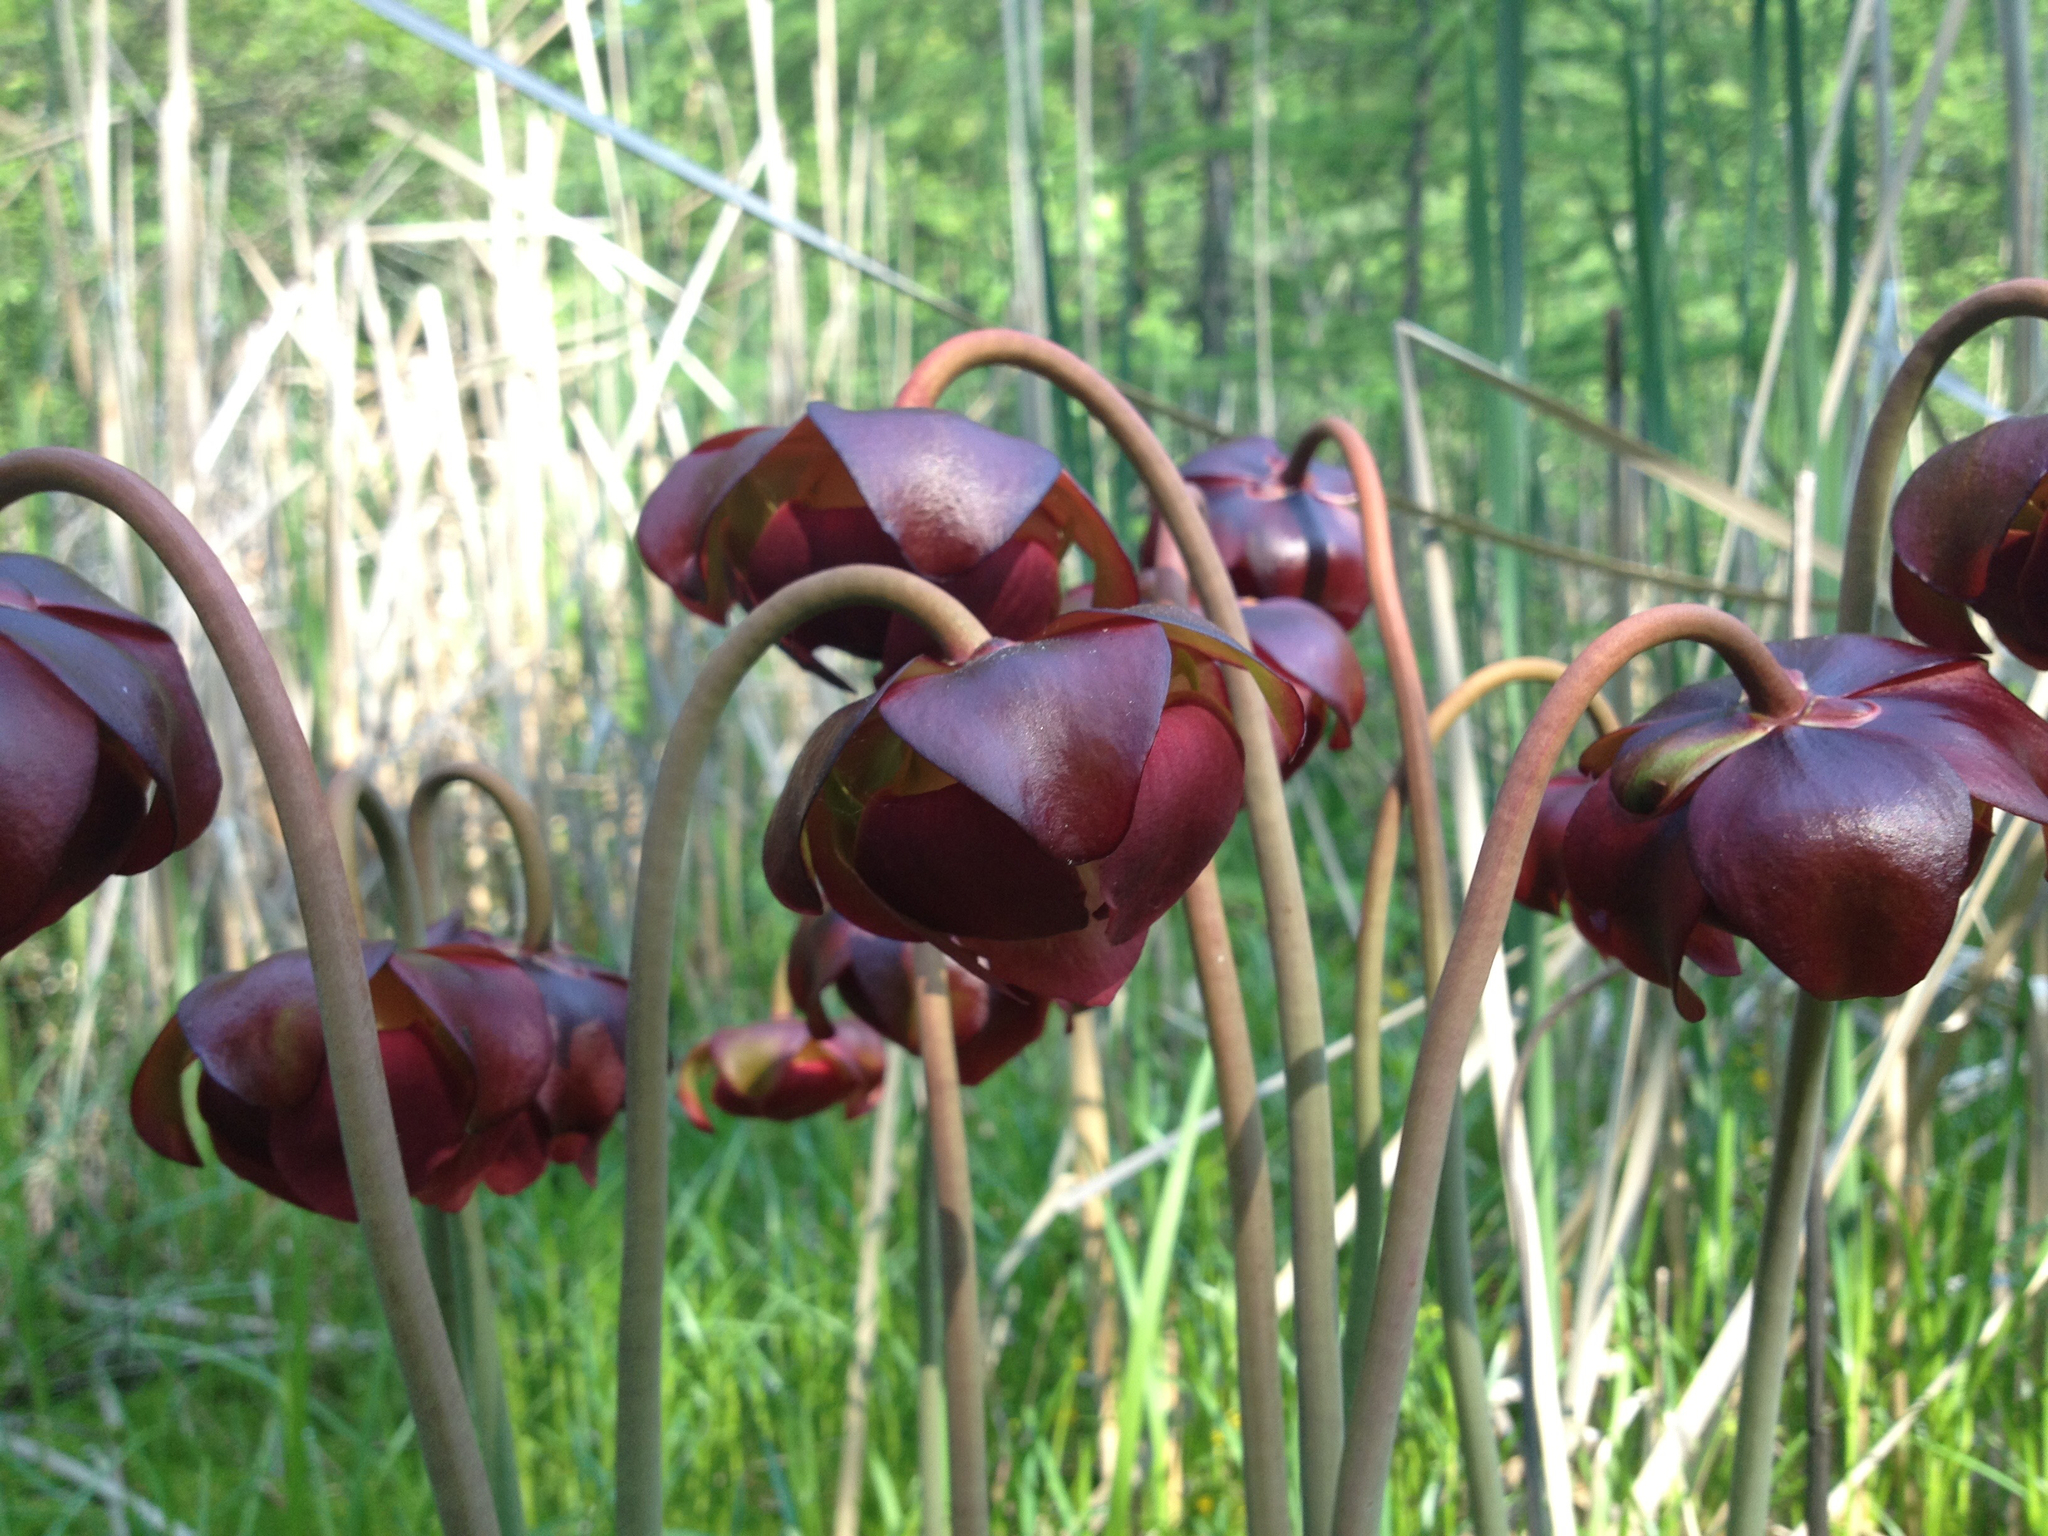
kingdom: Plantae
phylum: Tracheophyta
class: Magnoliopsida
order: Ericales
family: Sarraceniaceae
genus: Sarracenia
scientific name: Sarracenia purpurea
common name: Pitcherplant
